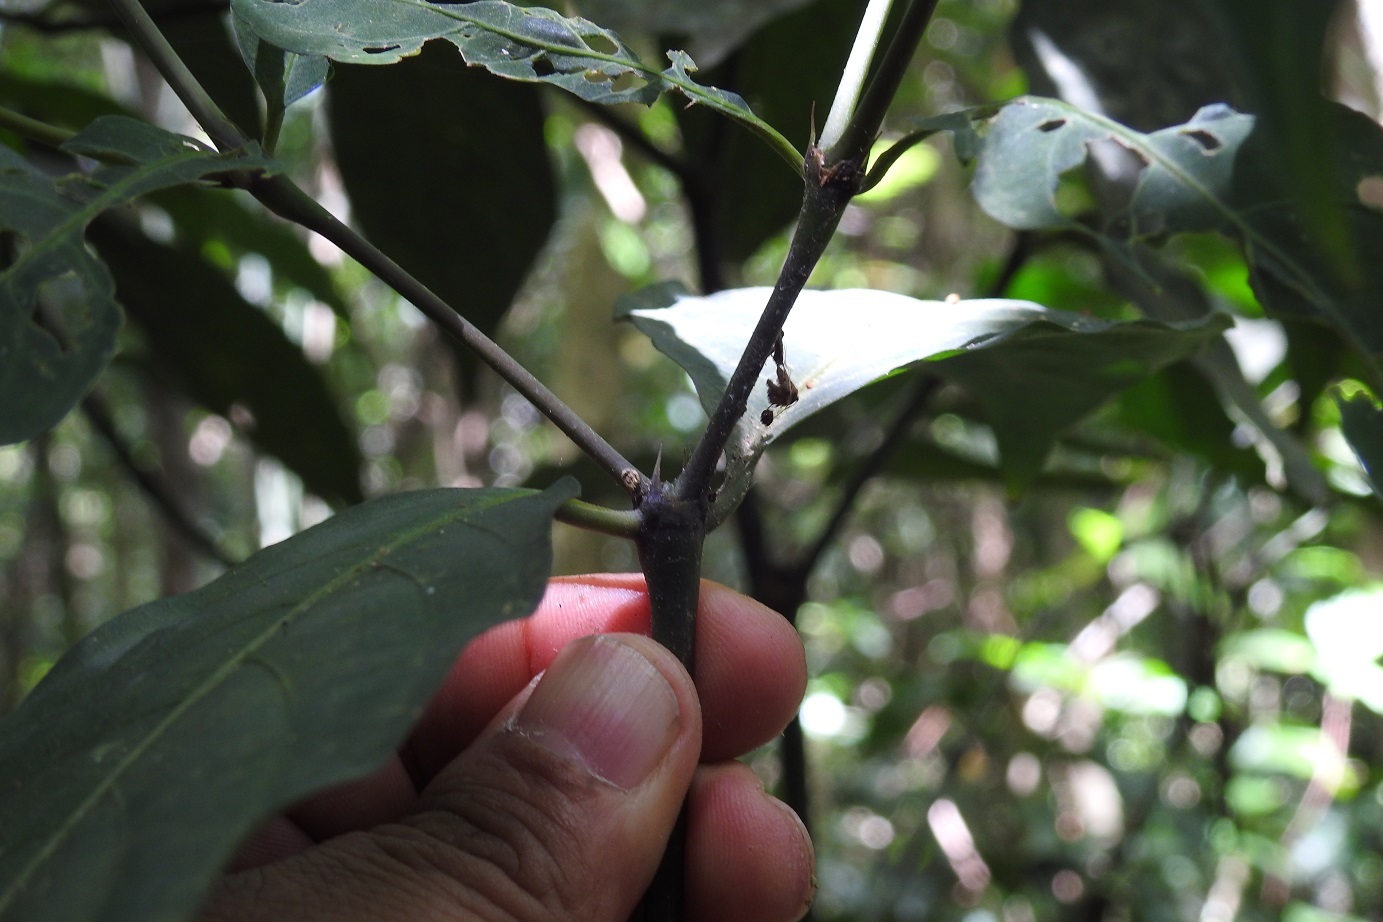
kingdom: Plantae
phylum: Tracheophyta
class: Magnoliopsida
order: Gentianales
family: Rubiaceae
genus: Palicourea
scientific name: Palicourea deflexa
